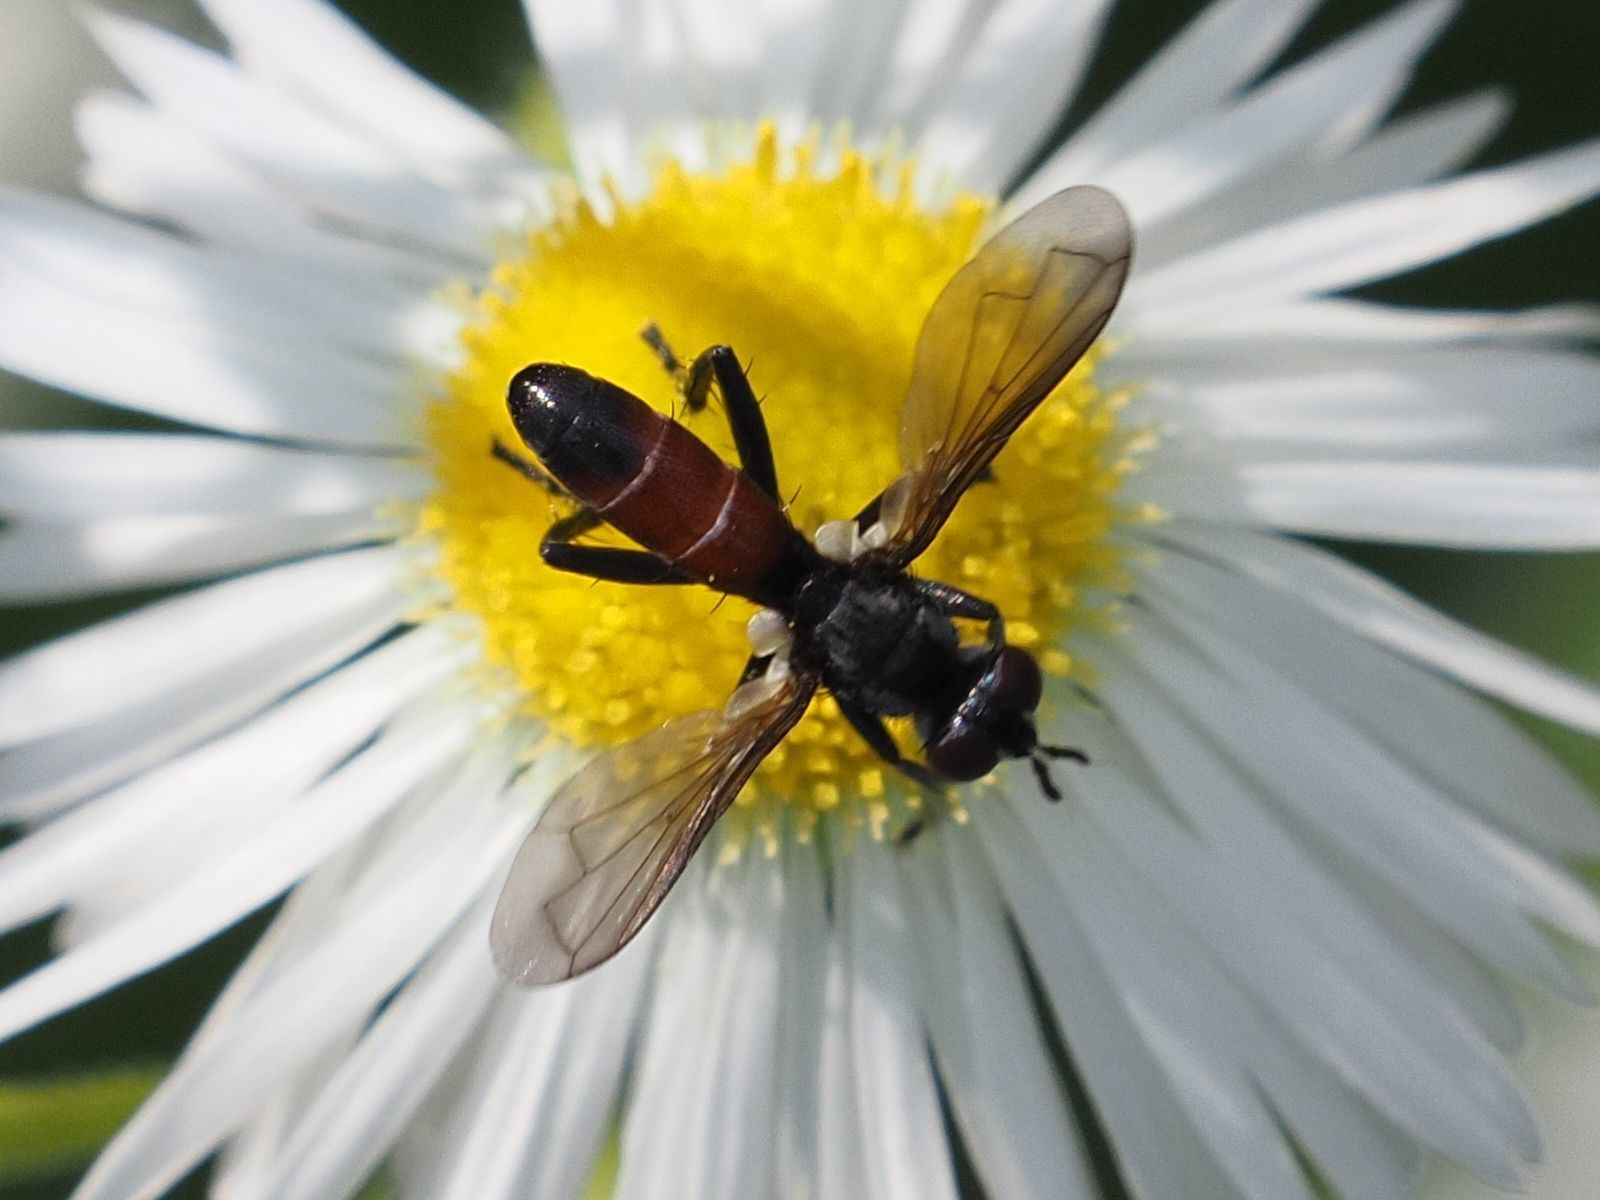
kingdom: Animalia
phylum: Arthropoda
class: Insecta
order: Diptera
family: Tachinidae
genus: Cylindromyia
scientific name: Cylindromyia pusilla
